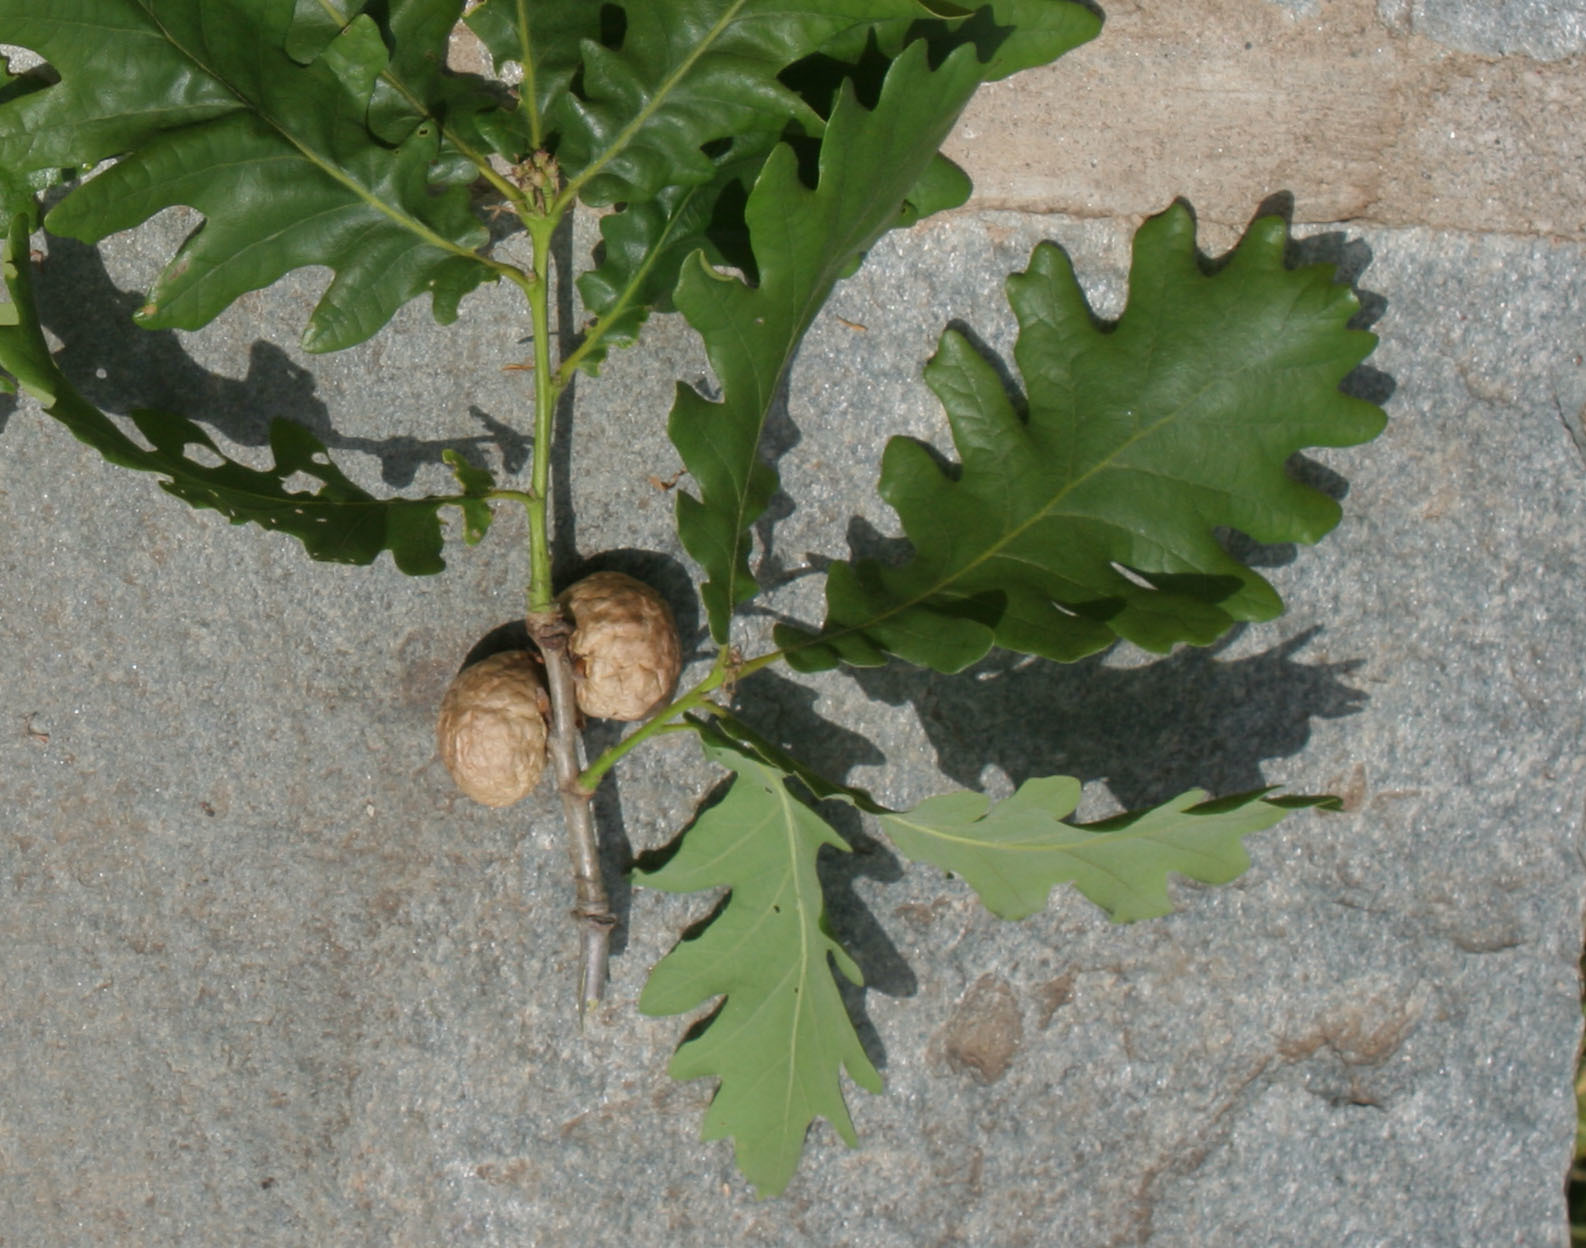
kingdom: Animalia
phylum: Arthropoda
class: Insecta
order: Hymenoptera
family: Cynipidae
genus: Biorhiza
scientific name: Biorhiza pallida
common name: Oak apple
